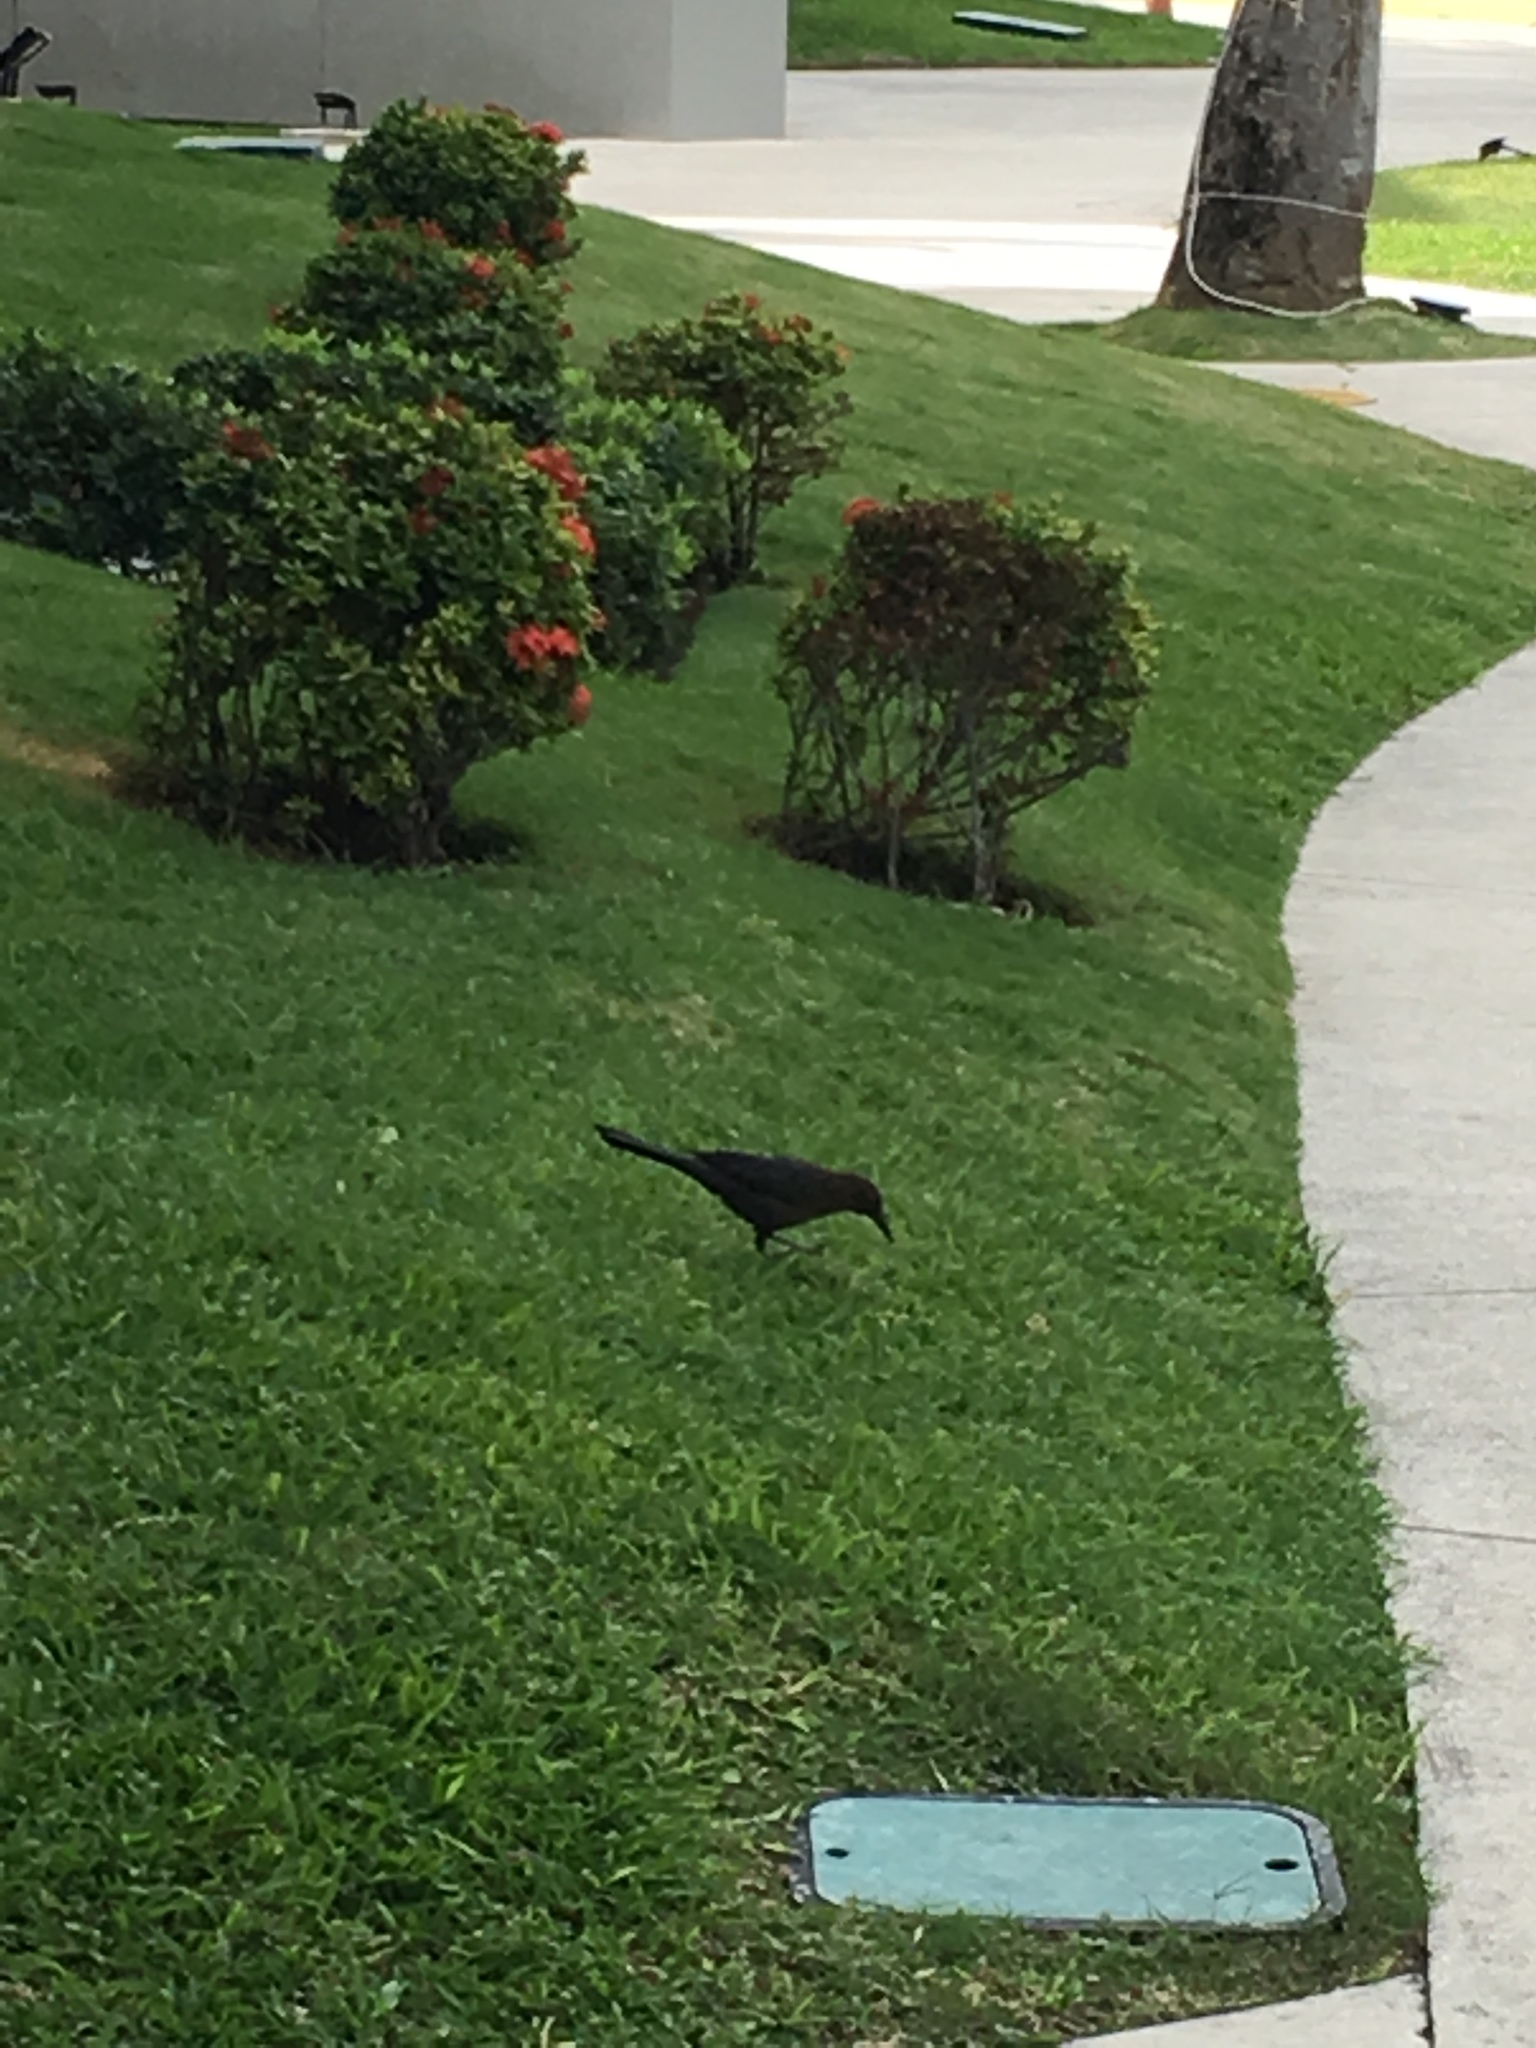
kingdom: Animalia
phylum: Chordata
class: Aves
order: Passeriformes
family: Icteridae
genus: Quiscalus
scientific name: Quiscalus mexicanus
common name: Great-tailed grackle
